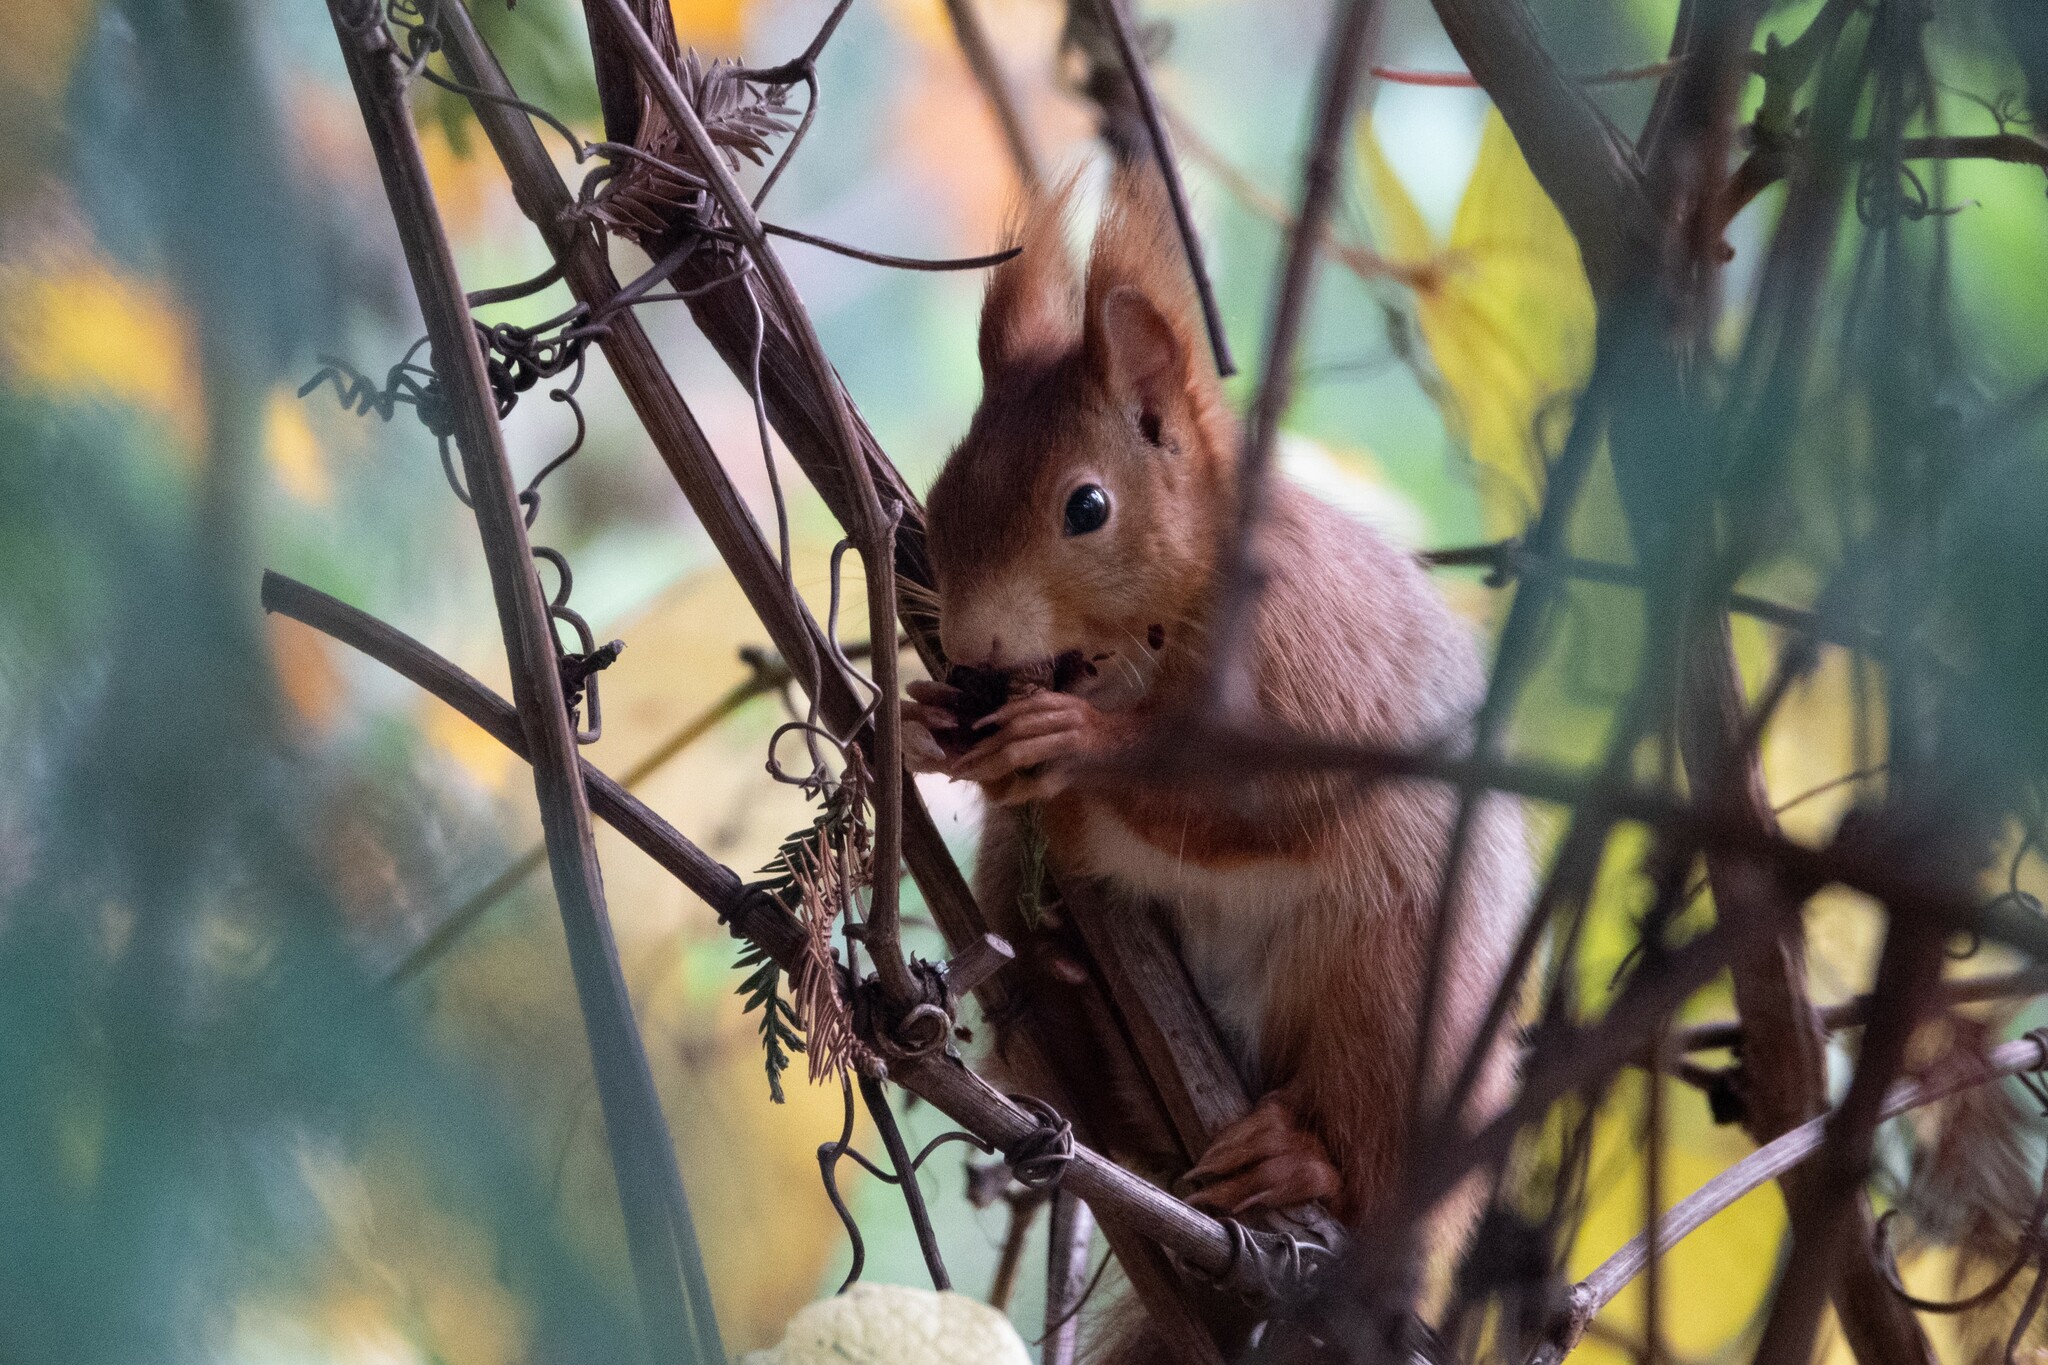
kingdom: Animalia
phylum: Chordata
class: Mammalia
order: Rodentia
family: Sciuridae
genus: Sciurus
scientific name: Sciurus vulgaris
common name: Eurasian red squirrel
